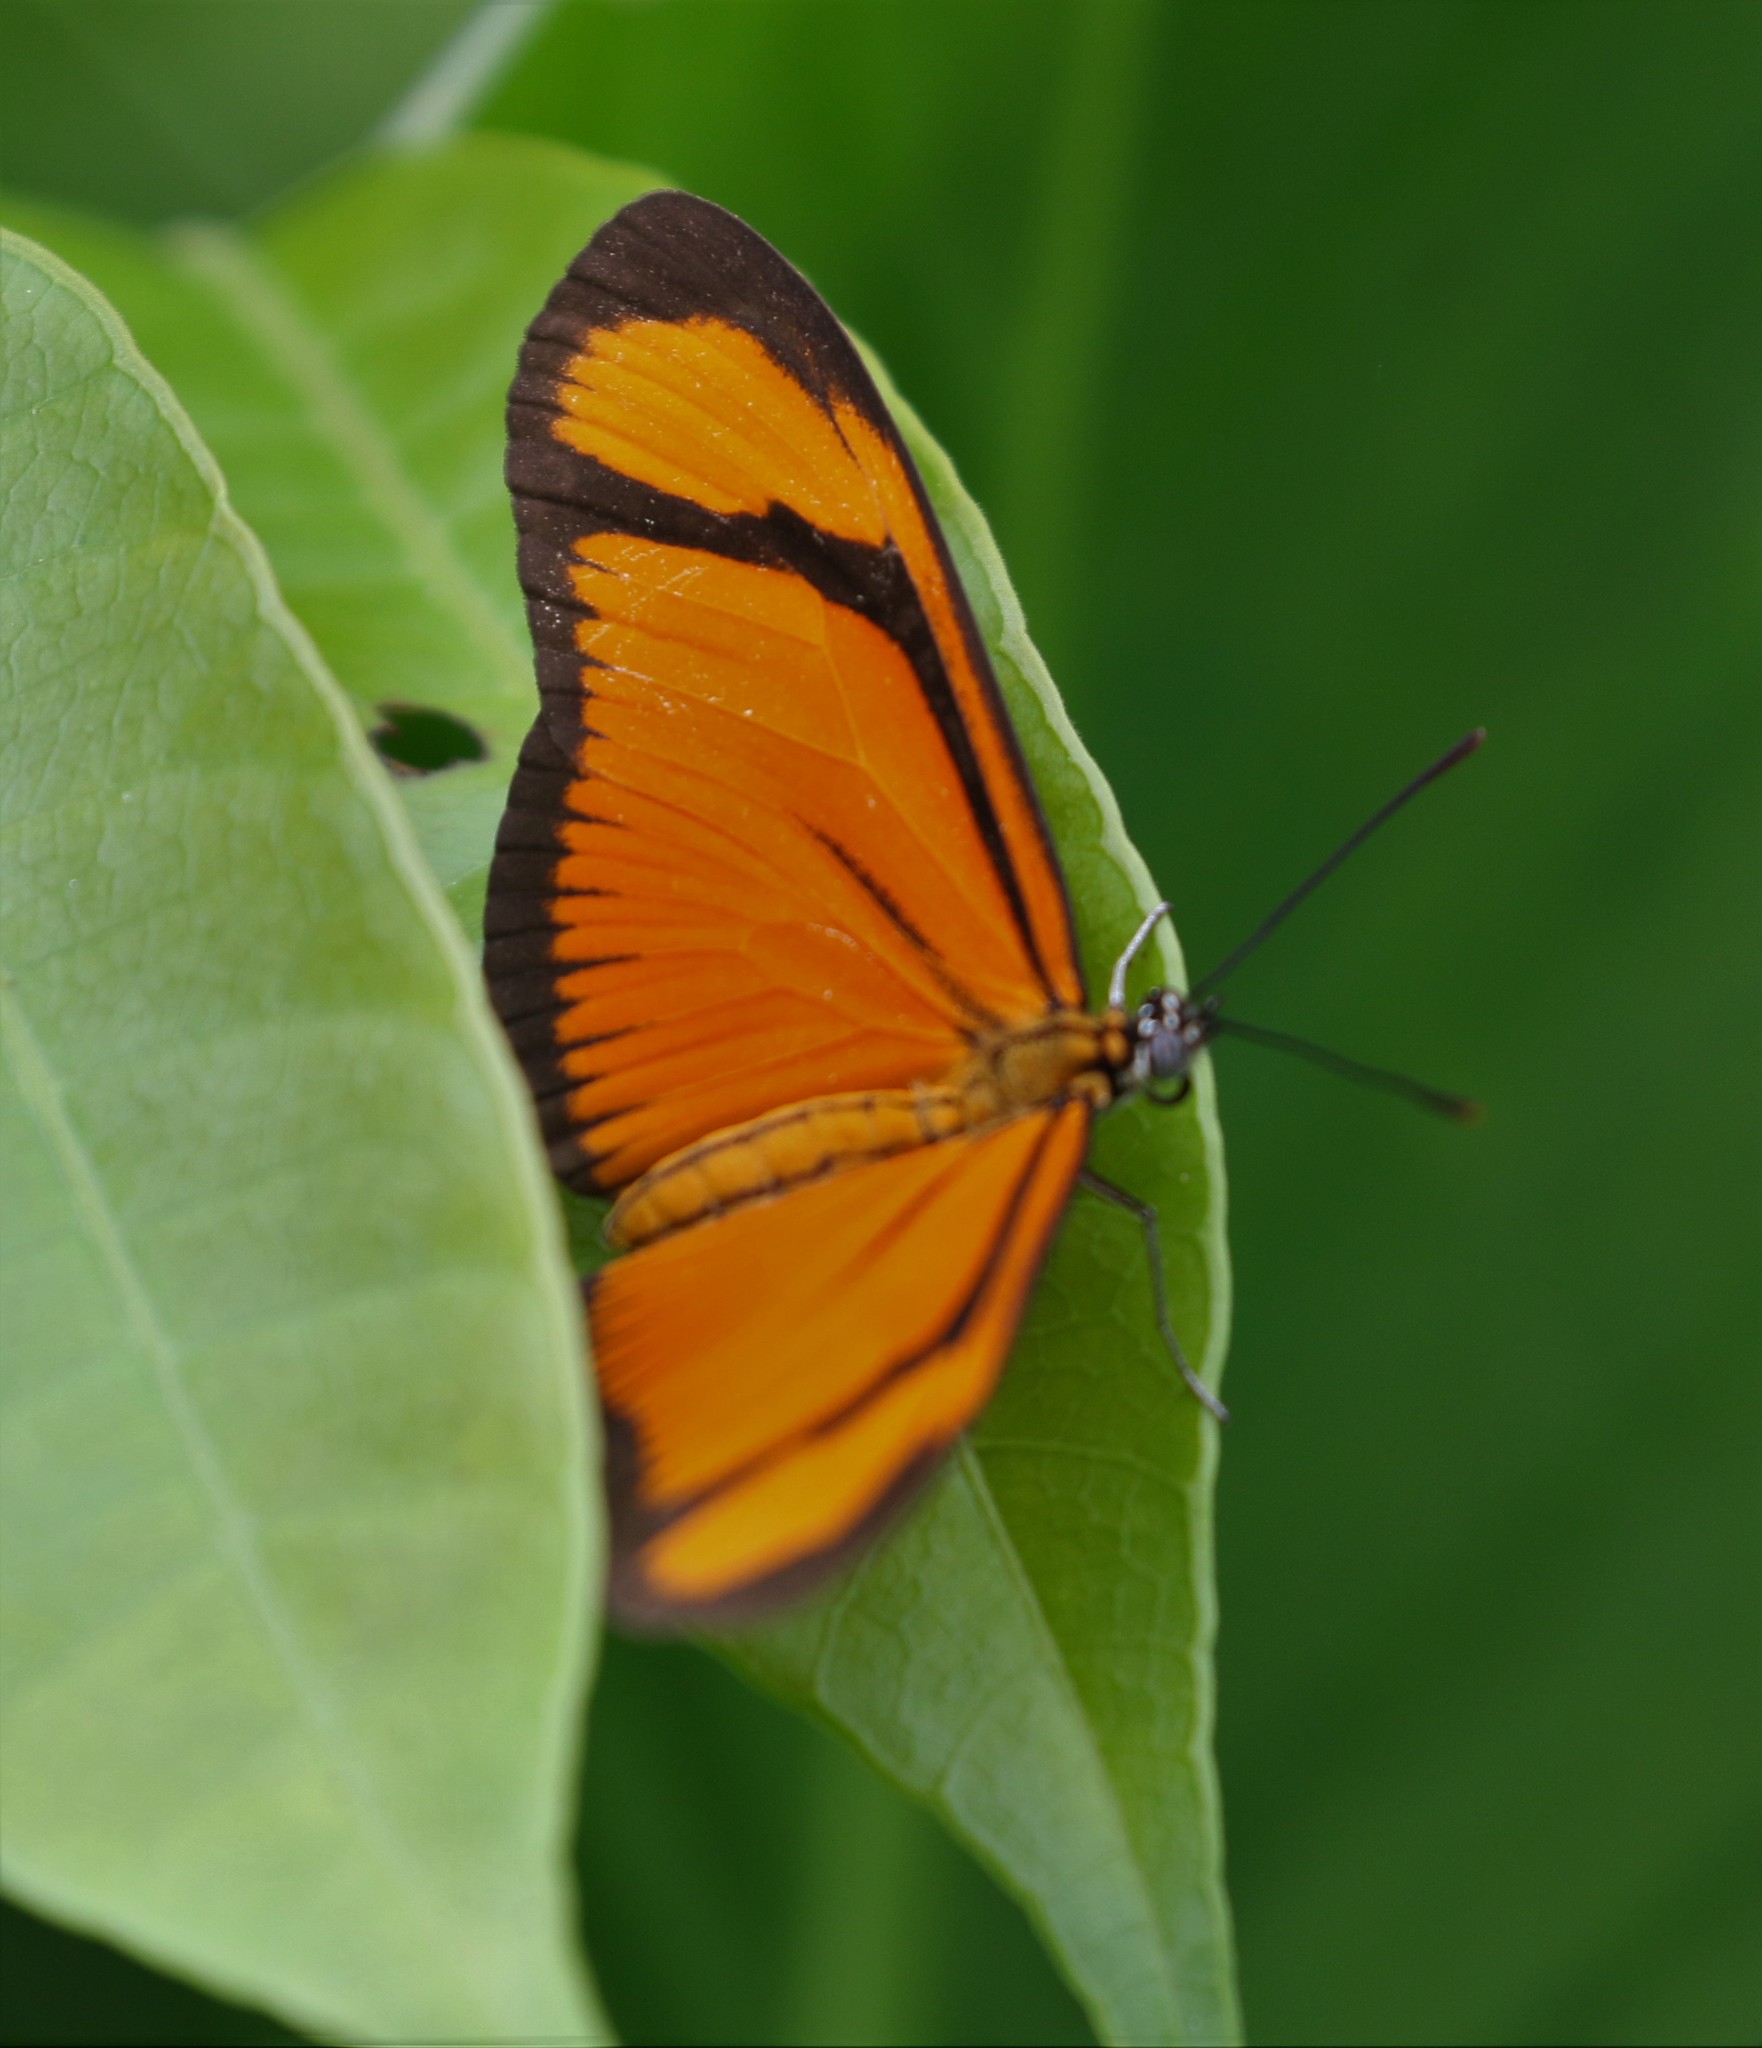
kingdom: Animalia
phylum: Arthropoda
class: Insecta
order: Lepidoptera
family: Nymphalidae
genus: Heliconius
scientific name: Heliconius aliphera
